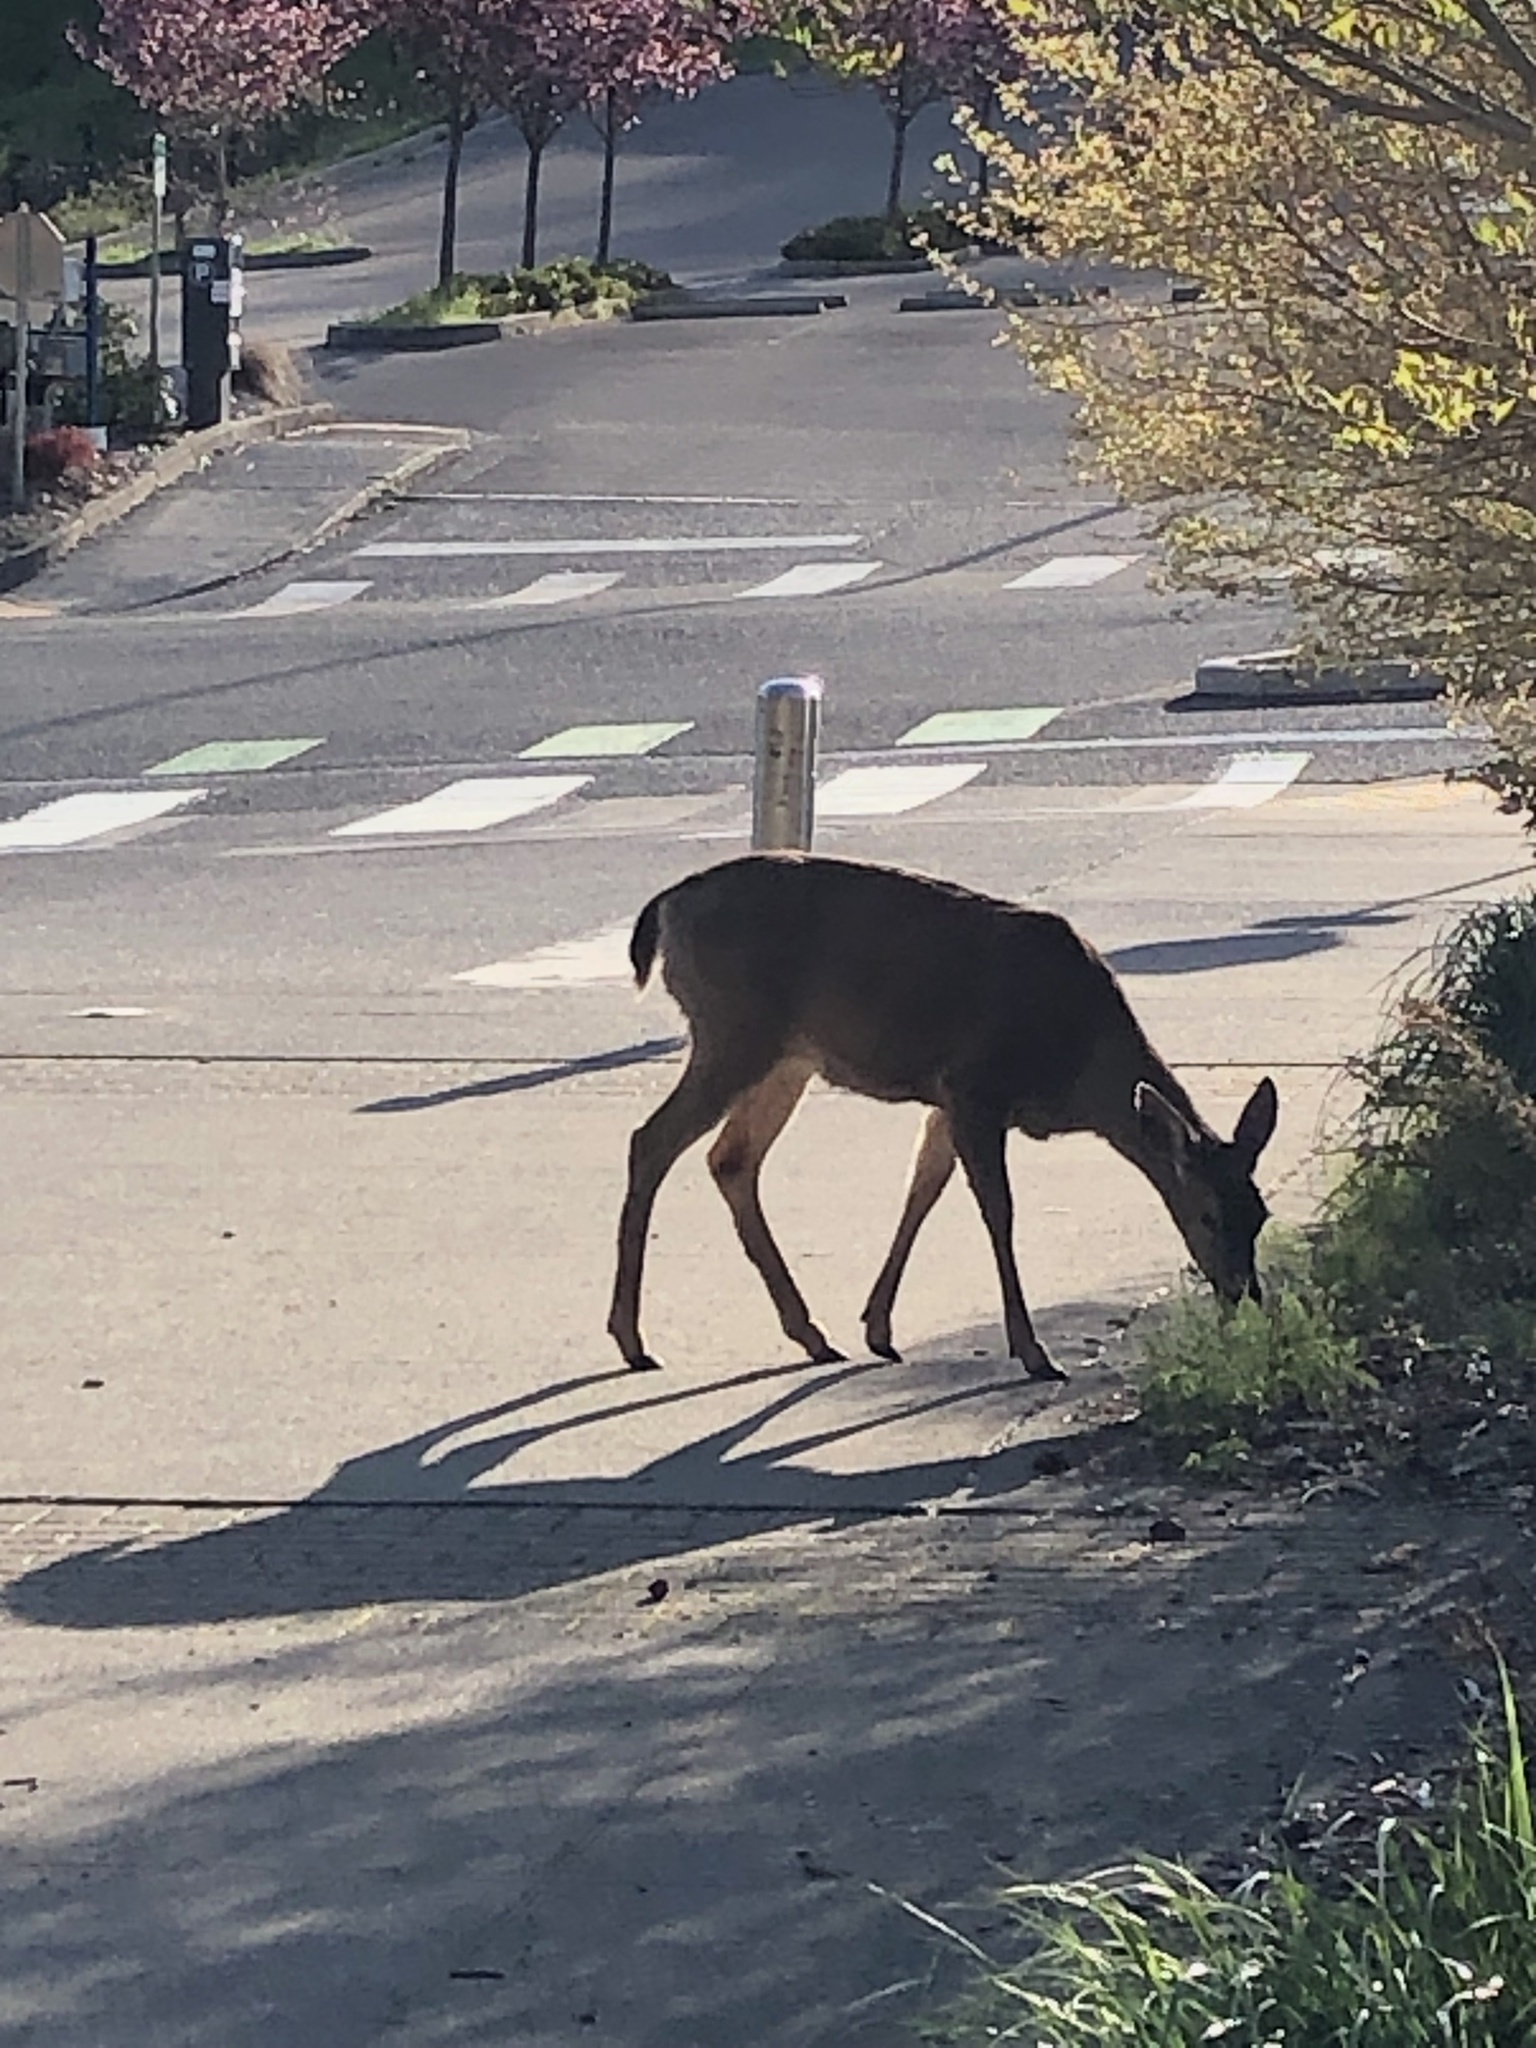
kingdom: Animalia
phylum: Chordata
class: Mammalia
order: Artiodactyla
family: Cervidae
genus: Odocoileus
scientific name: Odocoileus hemionus
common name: Mule deer
